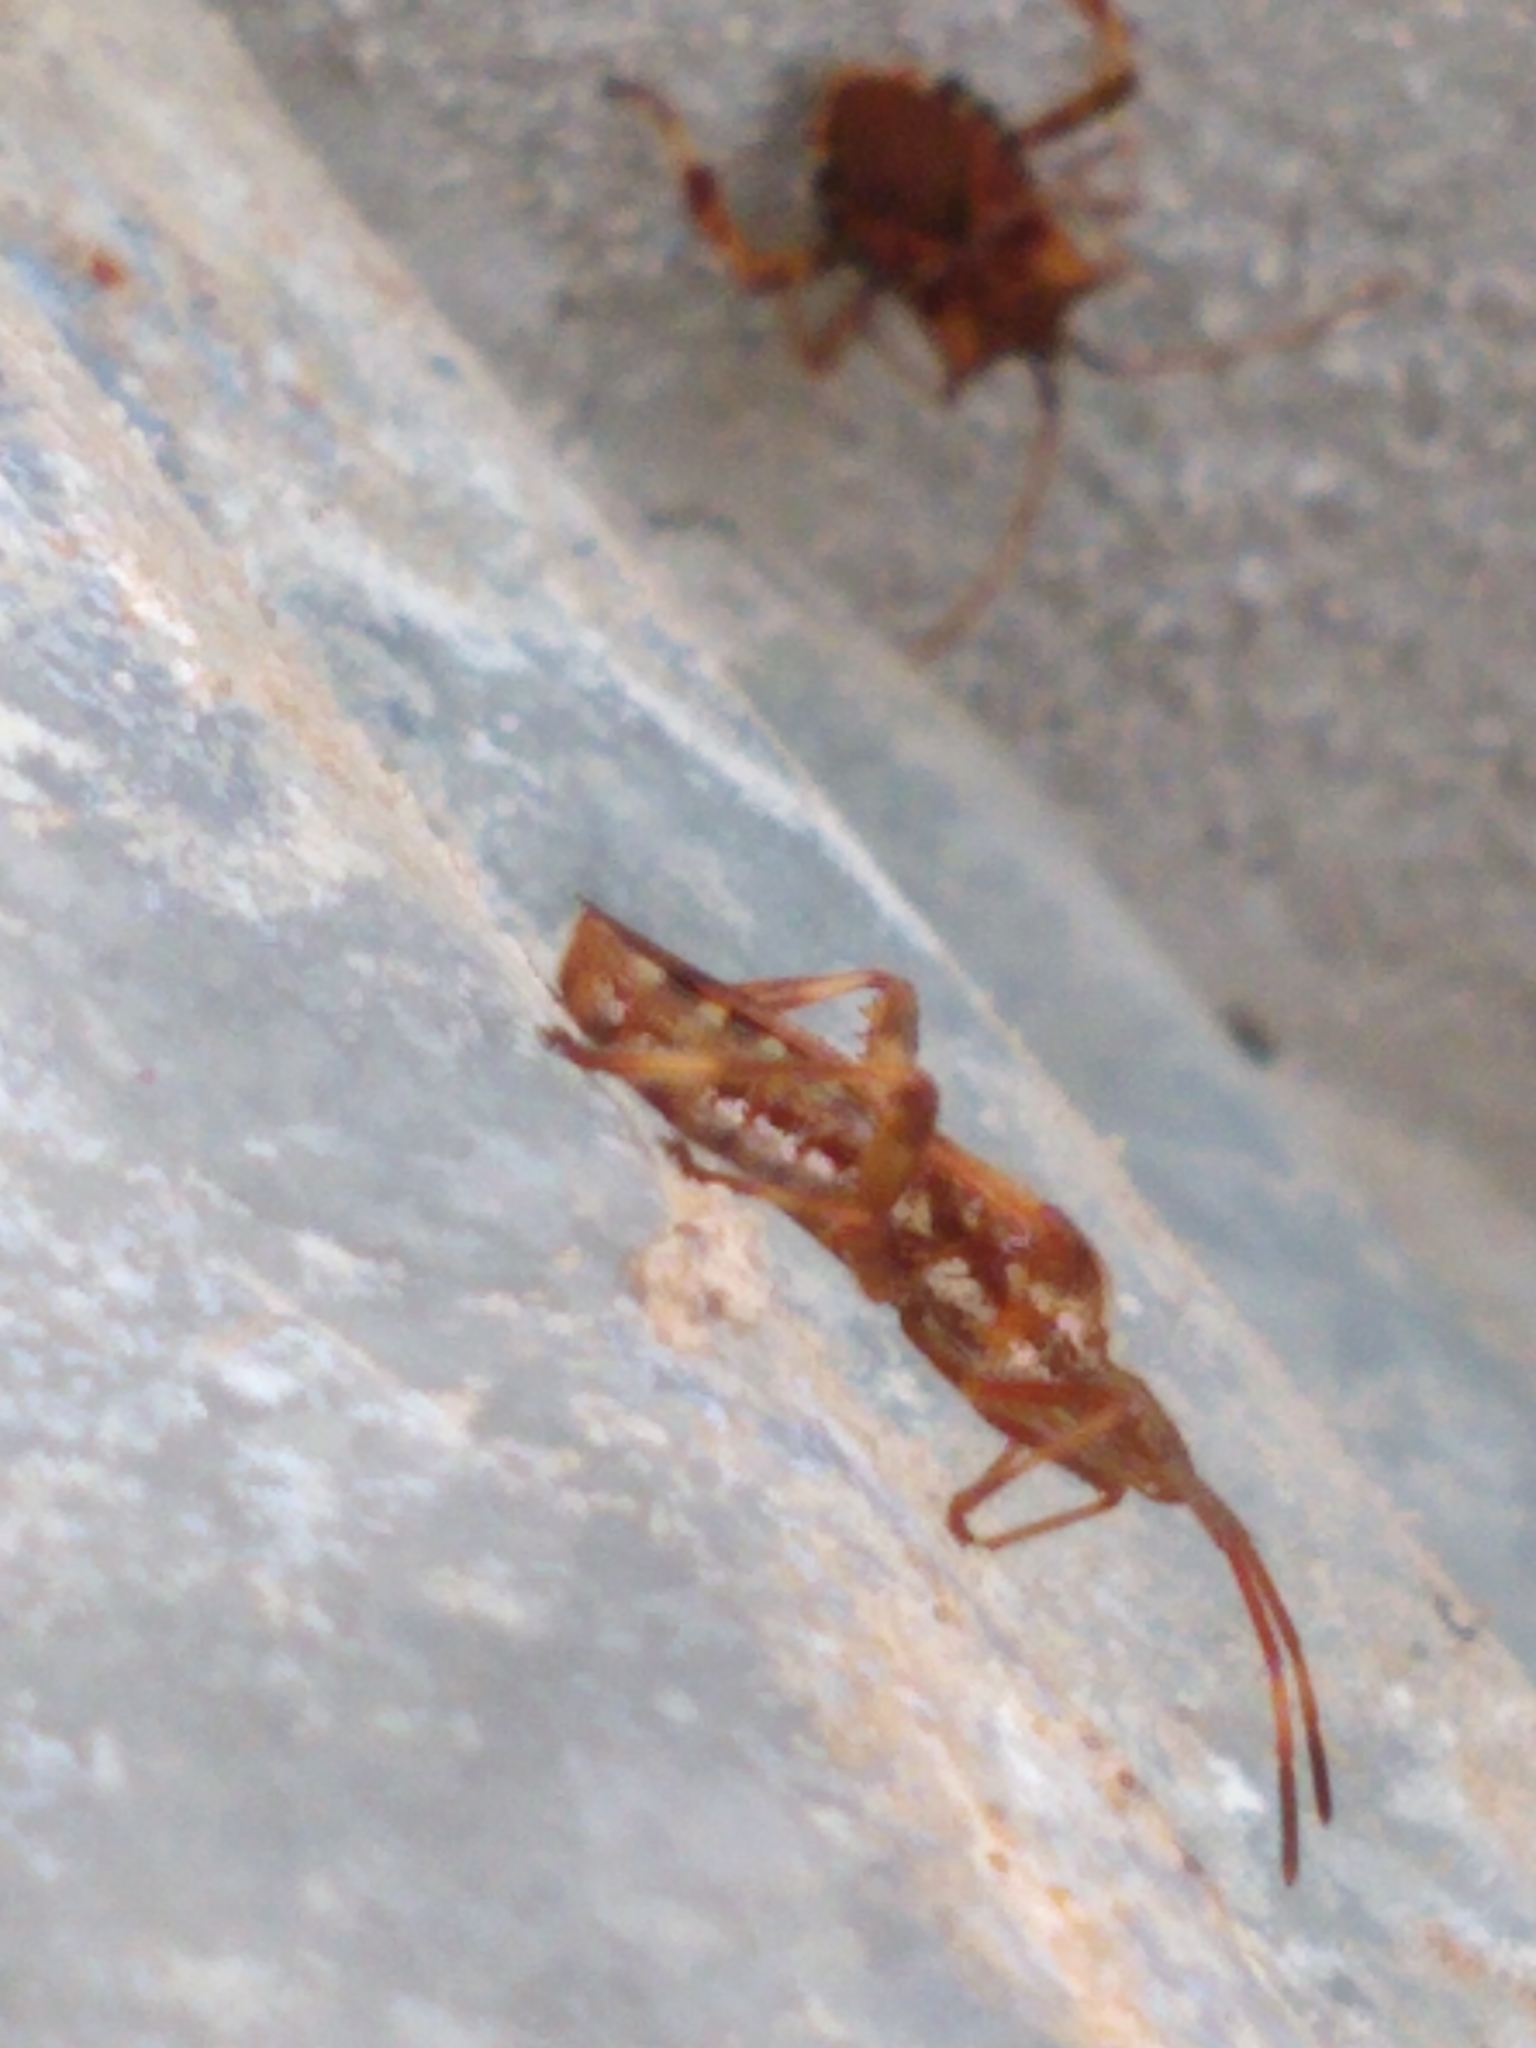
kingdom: Animalia
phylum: Arthropoda
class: Insecta
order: Hemiptera
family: Coreidae
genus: Leptoglossus
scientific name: Leptoglossus occidentalis
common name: Western conifer-seed bug
